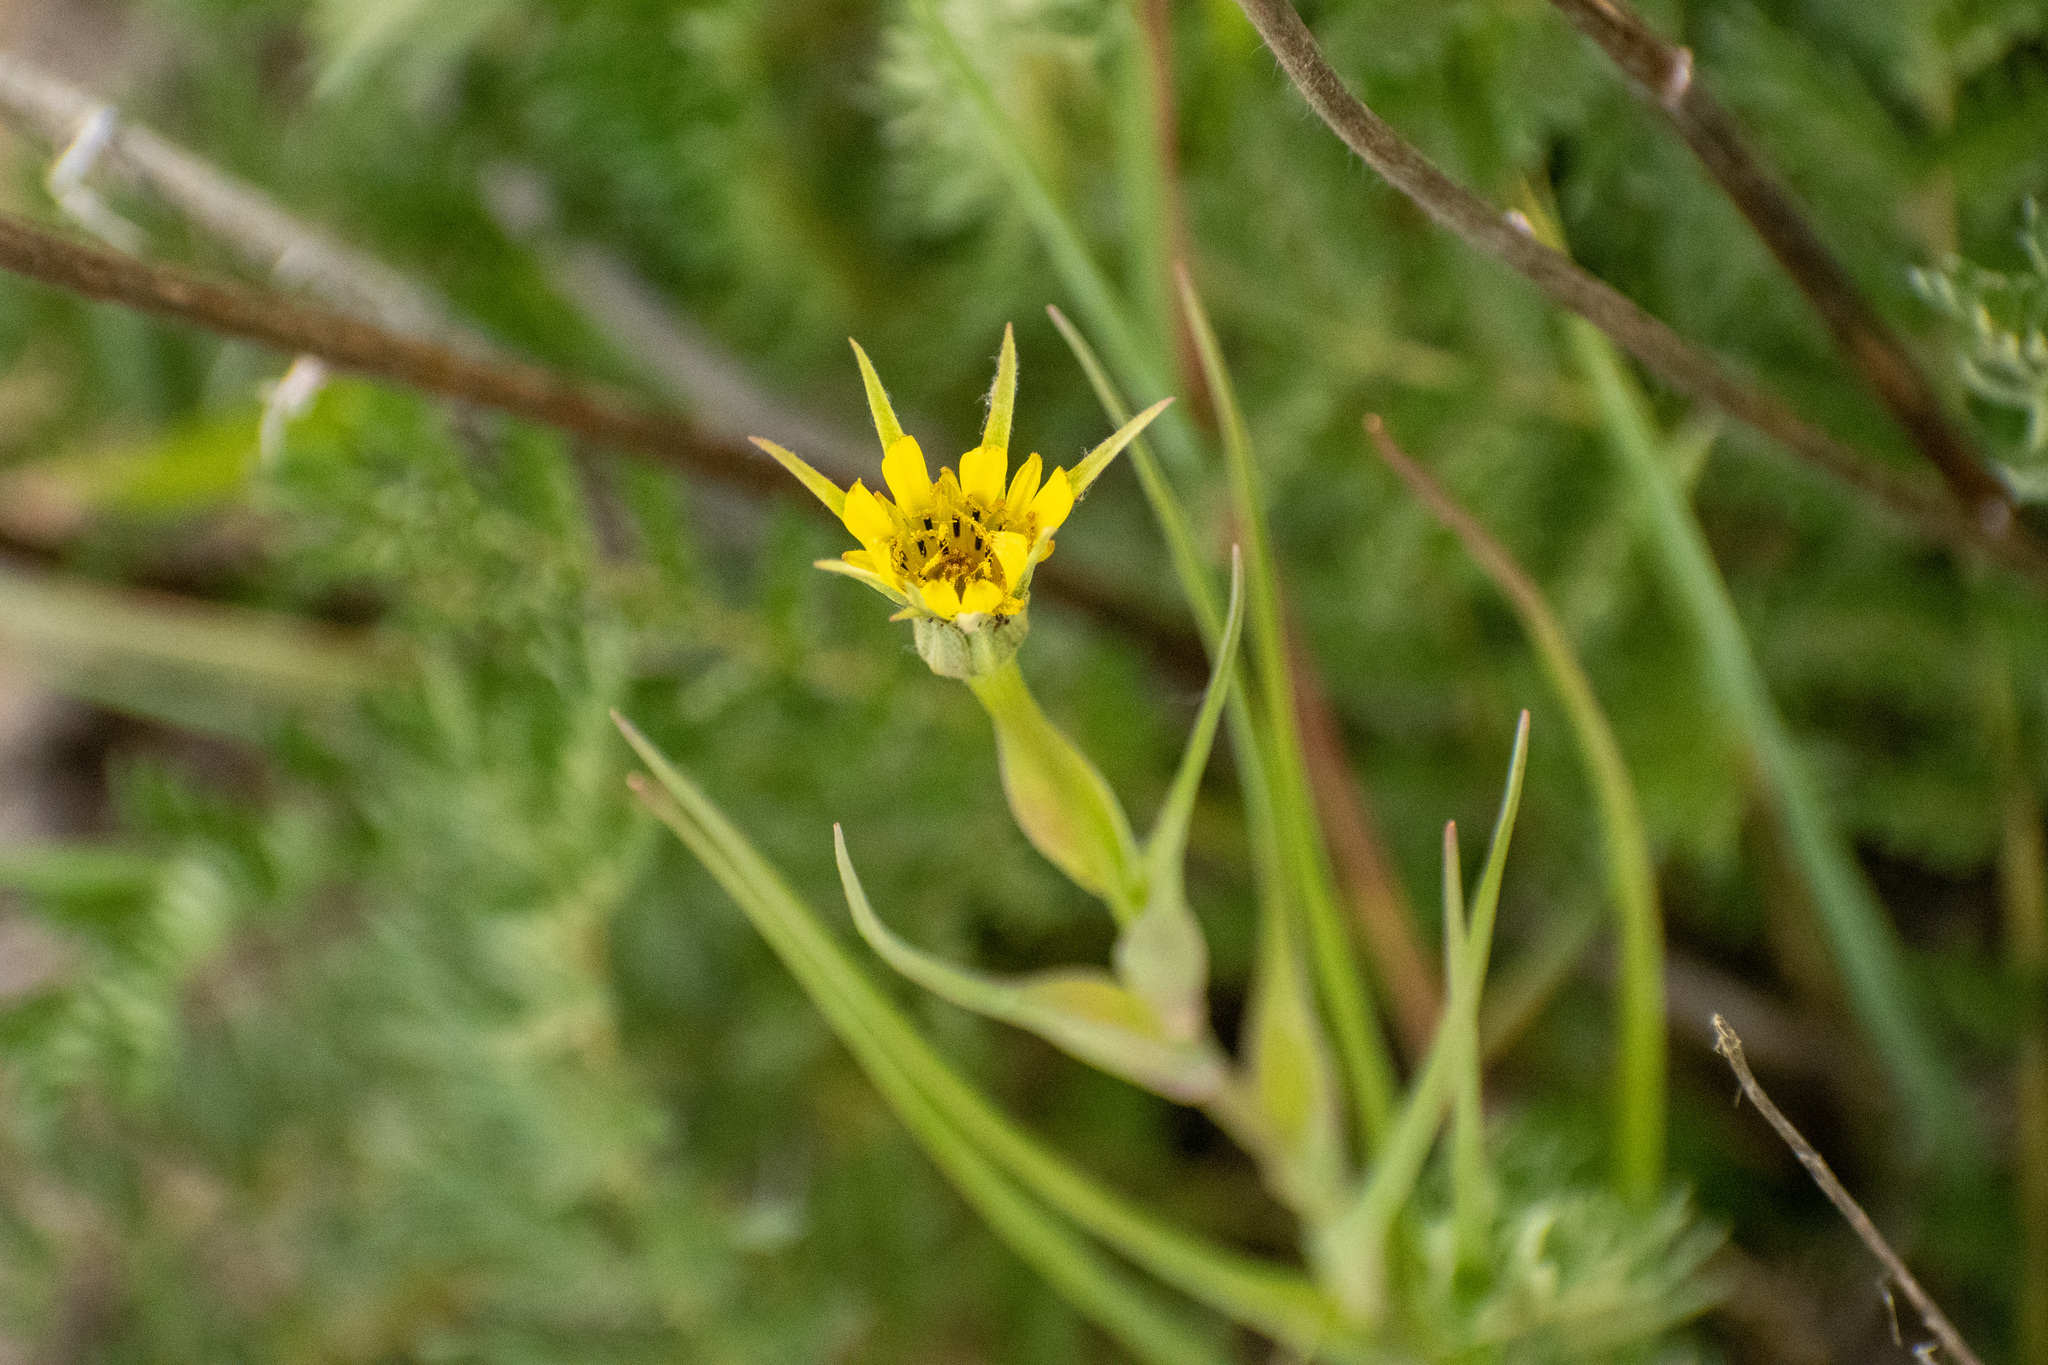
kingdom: Plantae
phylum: Tracheophyta
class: Magnoliopsida
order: Asterales
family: Asteraceae
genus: Tragopogon
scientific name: Tragopogon dubius
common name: Yellow salsify
